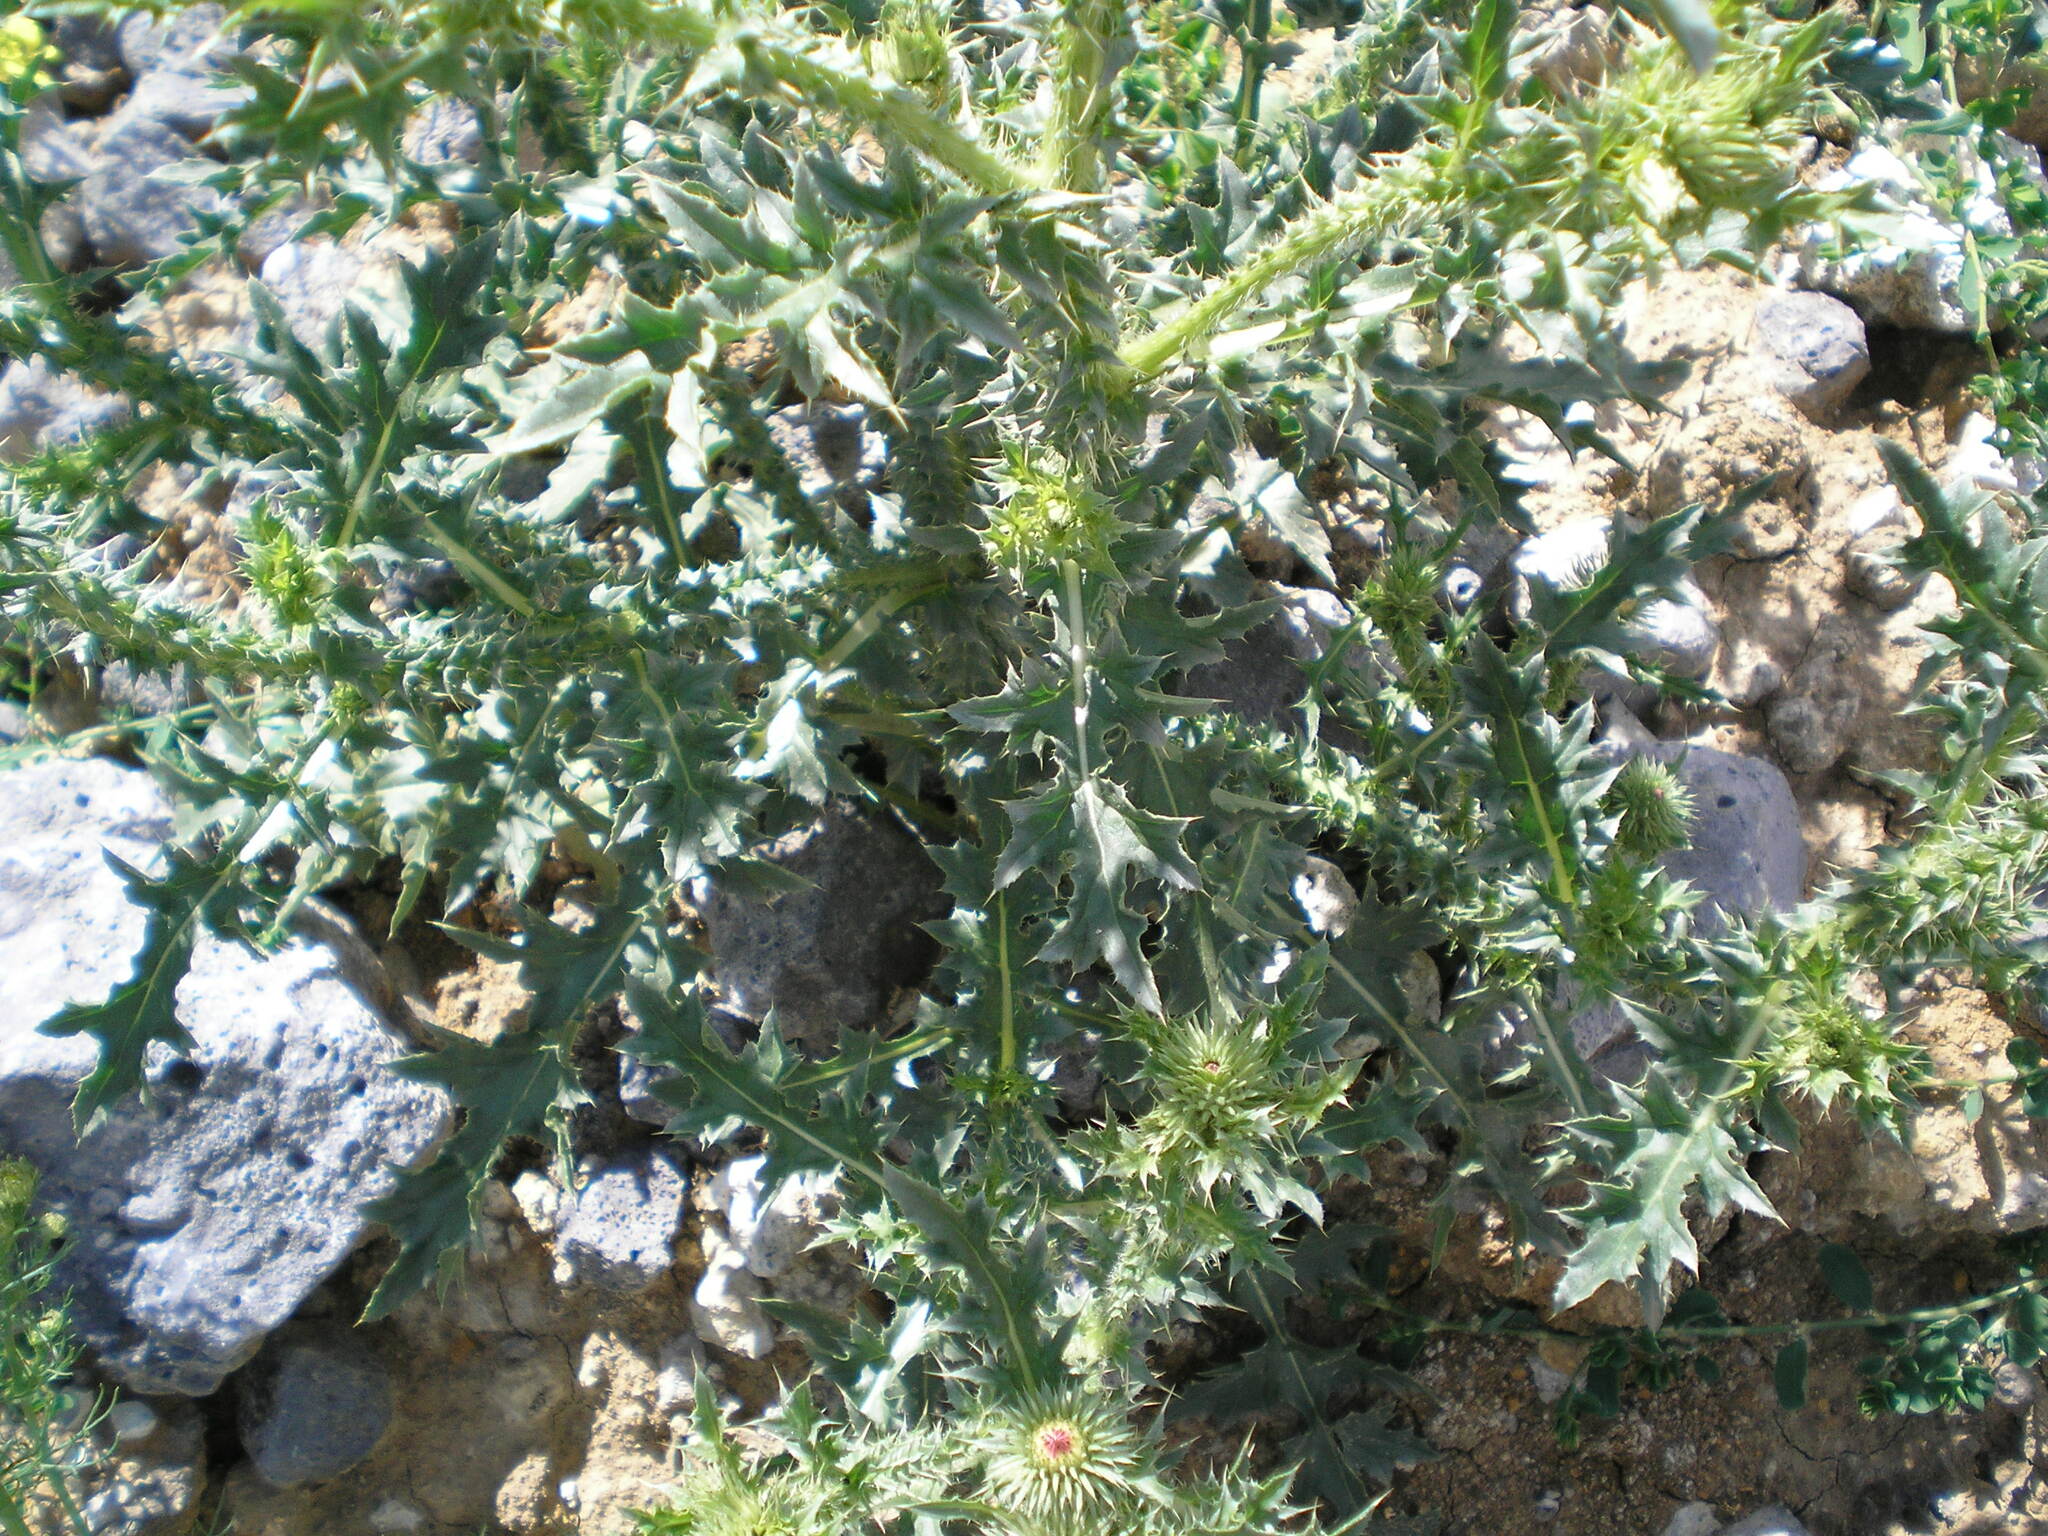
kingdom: Plantae
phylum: Tracheophyta
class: Magnoliopsida
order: Asterales
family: Asteraceae
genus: Carduus
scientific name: Carduus acanthoides
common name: Plumeless thistle
